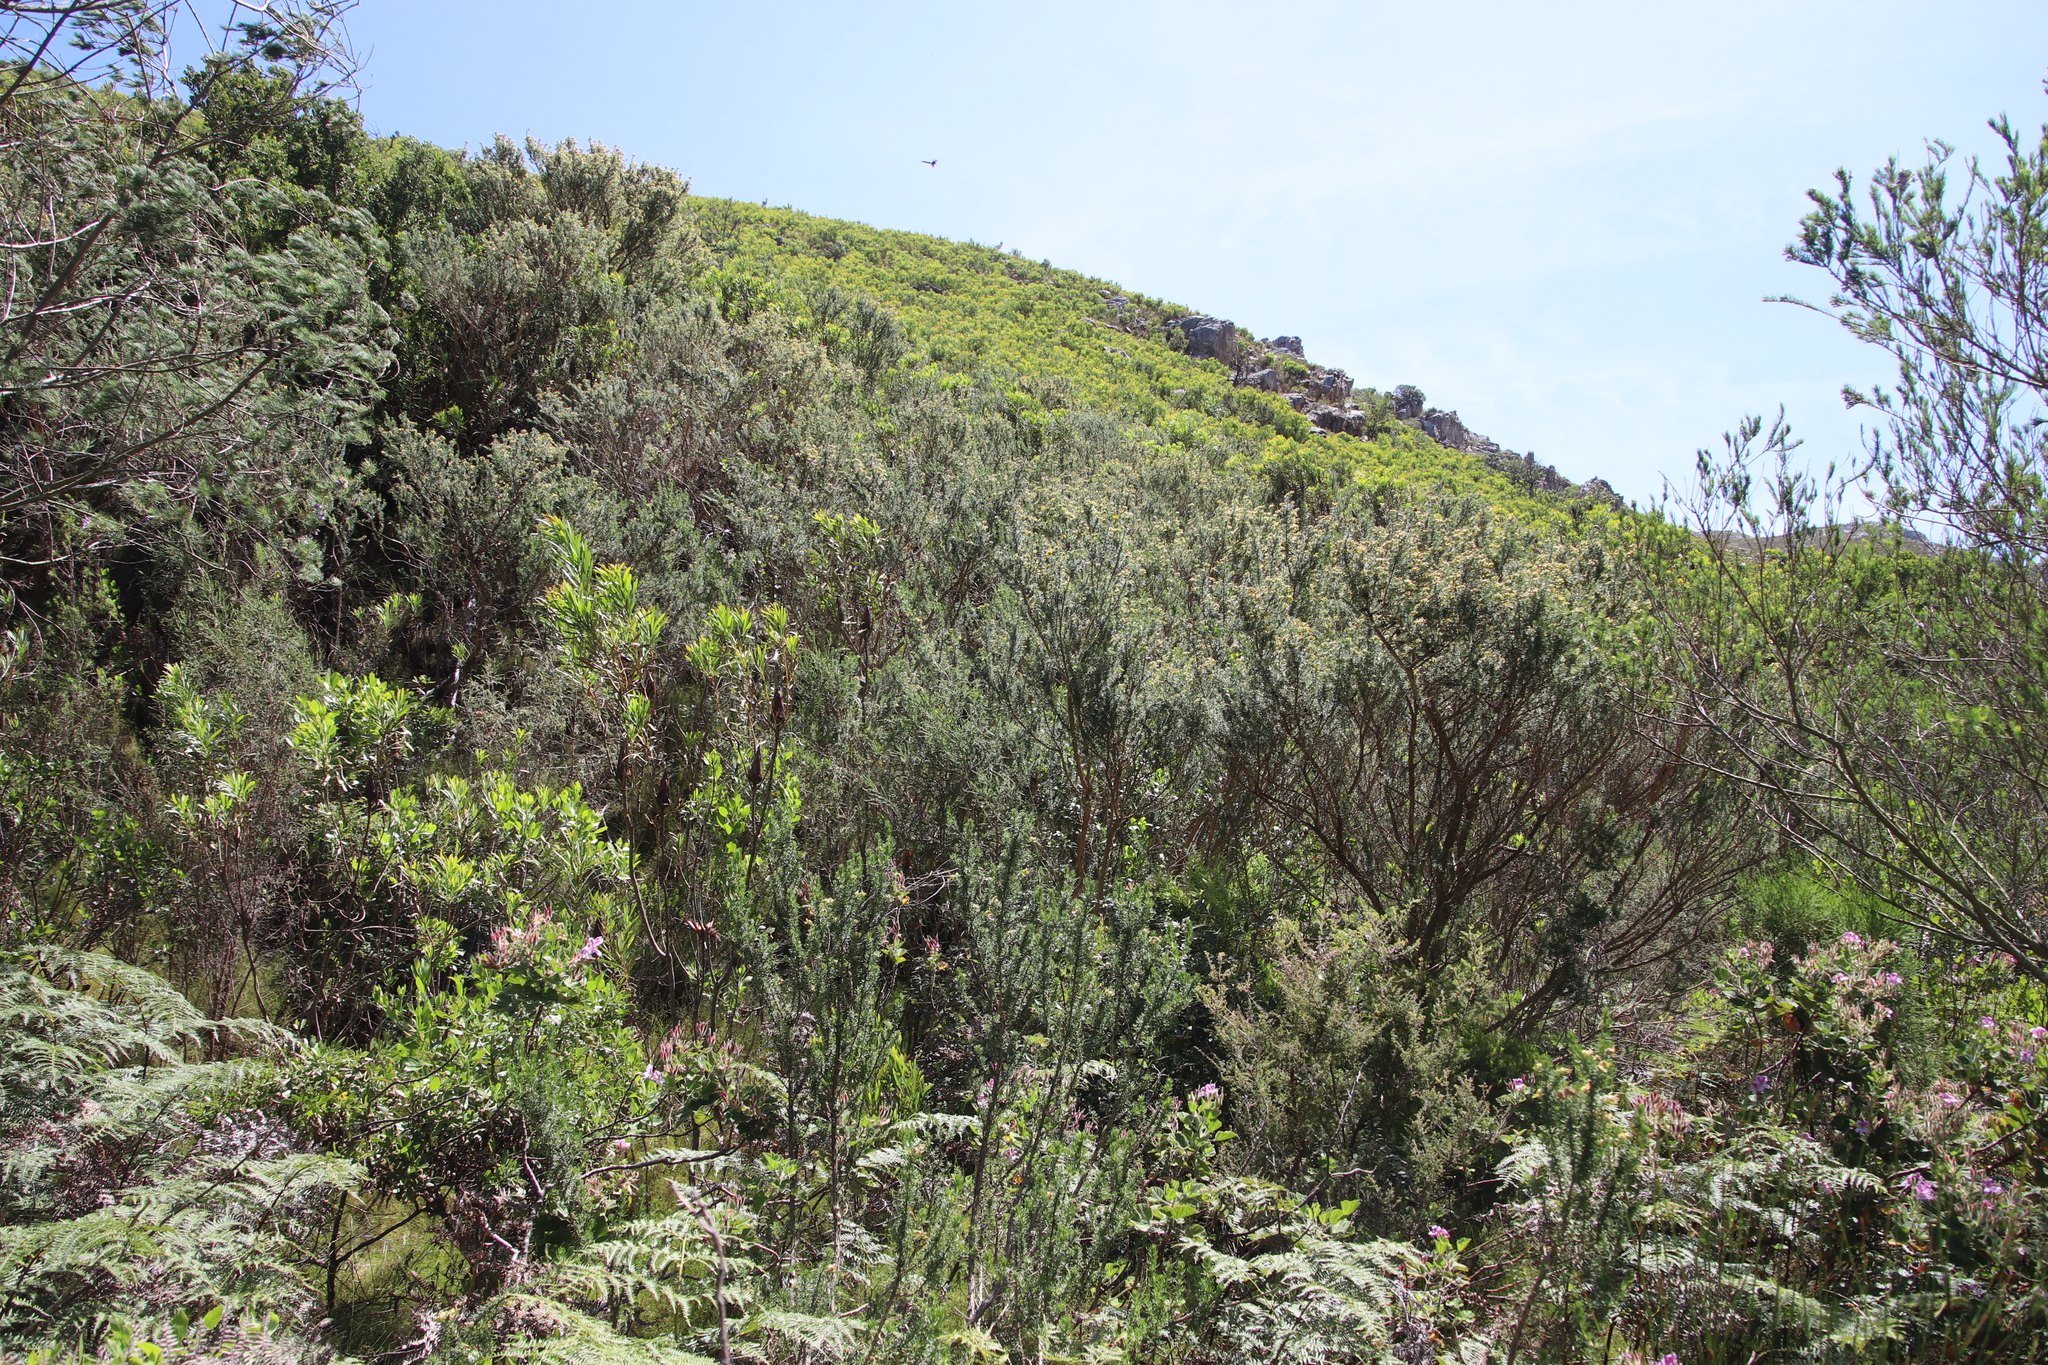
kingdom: Plantae
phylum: Tracheophyta
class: Magnoliopsida
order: Fabales
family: Fabaceae
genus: Aspalathus
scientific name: Aspalathus excelsa
